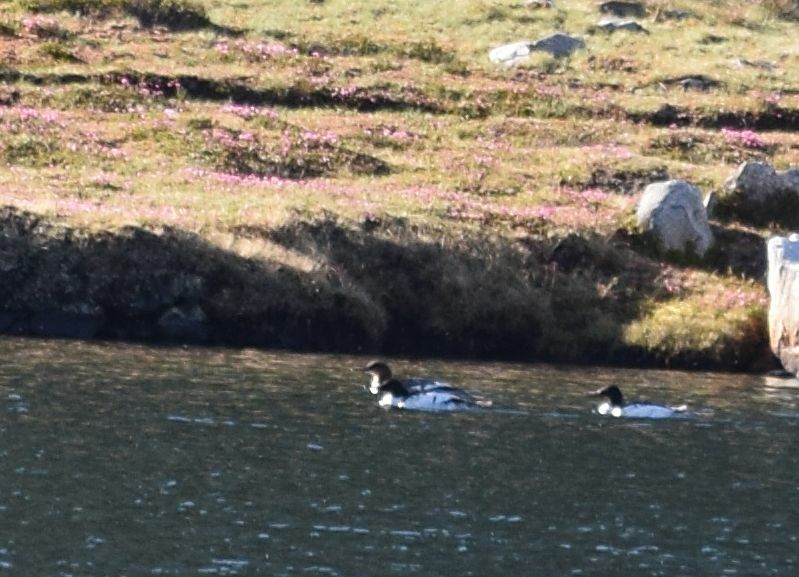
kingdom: Animalia
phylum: Chordata
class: Aves
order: Anseriformes
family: Anatidae
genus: Mergus
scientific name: Mergus merganser
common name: Common merganser
